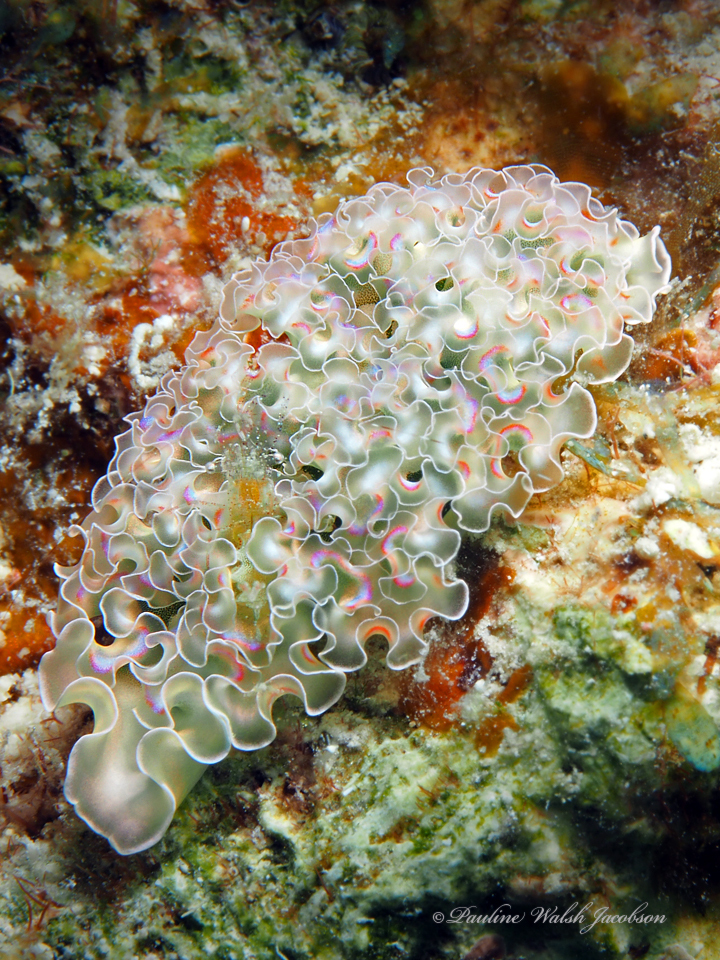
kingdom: Animalia
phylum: Arthropoda
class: Malacostraca
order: Decapoda
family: Palaemonidae
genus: Periclimenes
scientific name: Periclimenes rathbunae
